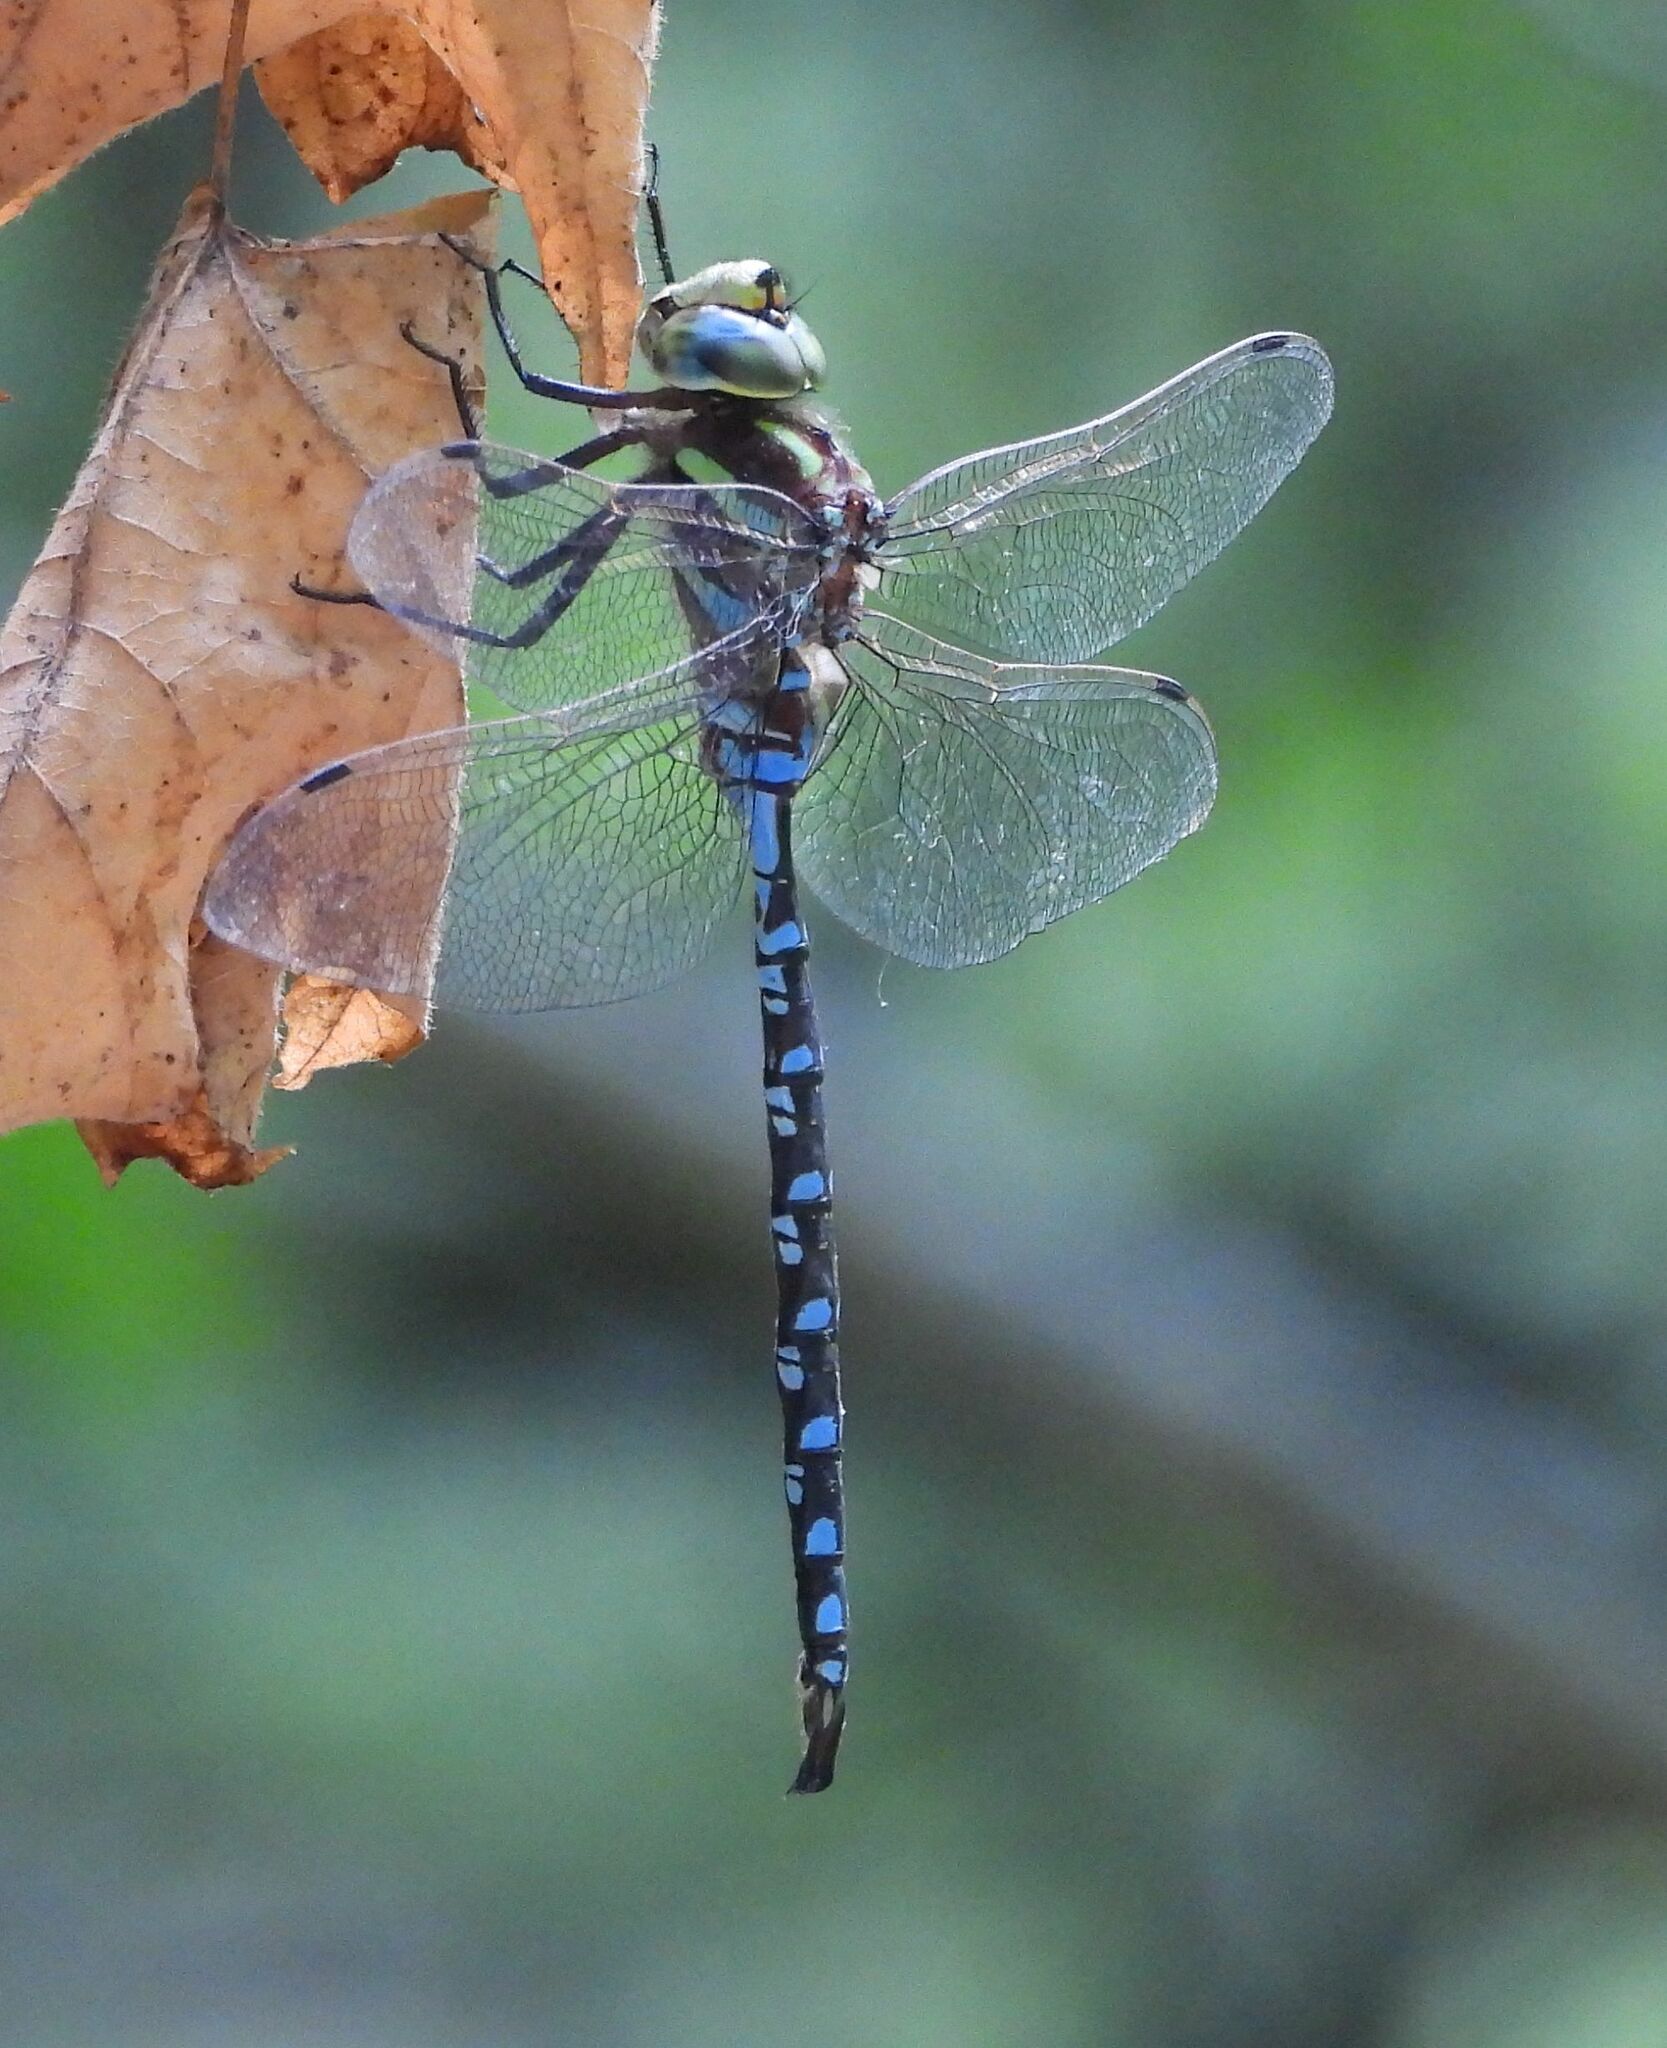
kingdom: Animalia
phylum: Arthropoda
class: Insecta
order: Odonata
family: Aeshnidae
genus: Aeshna
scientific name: Aeshna constricta
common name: Lance-tipped darner
